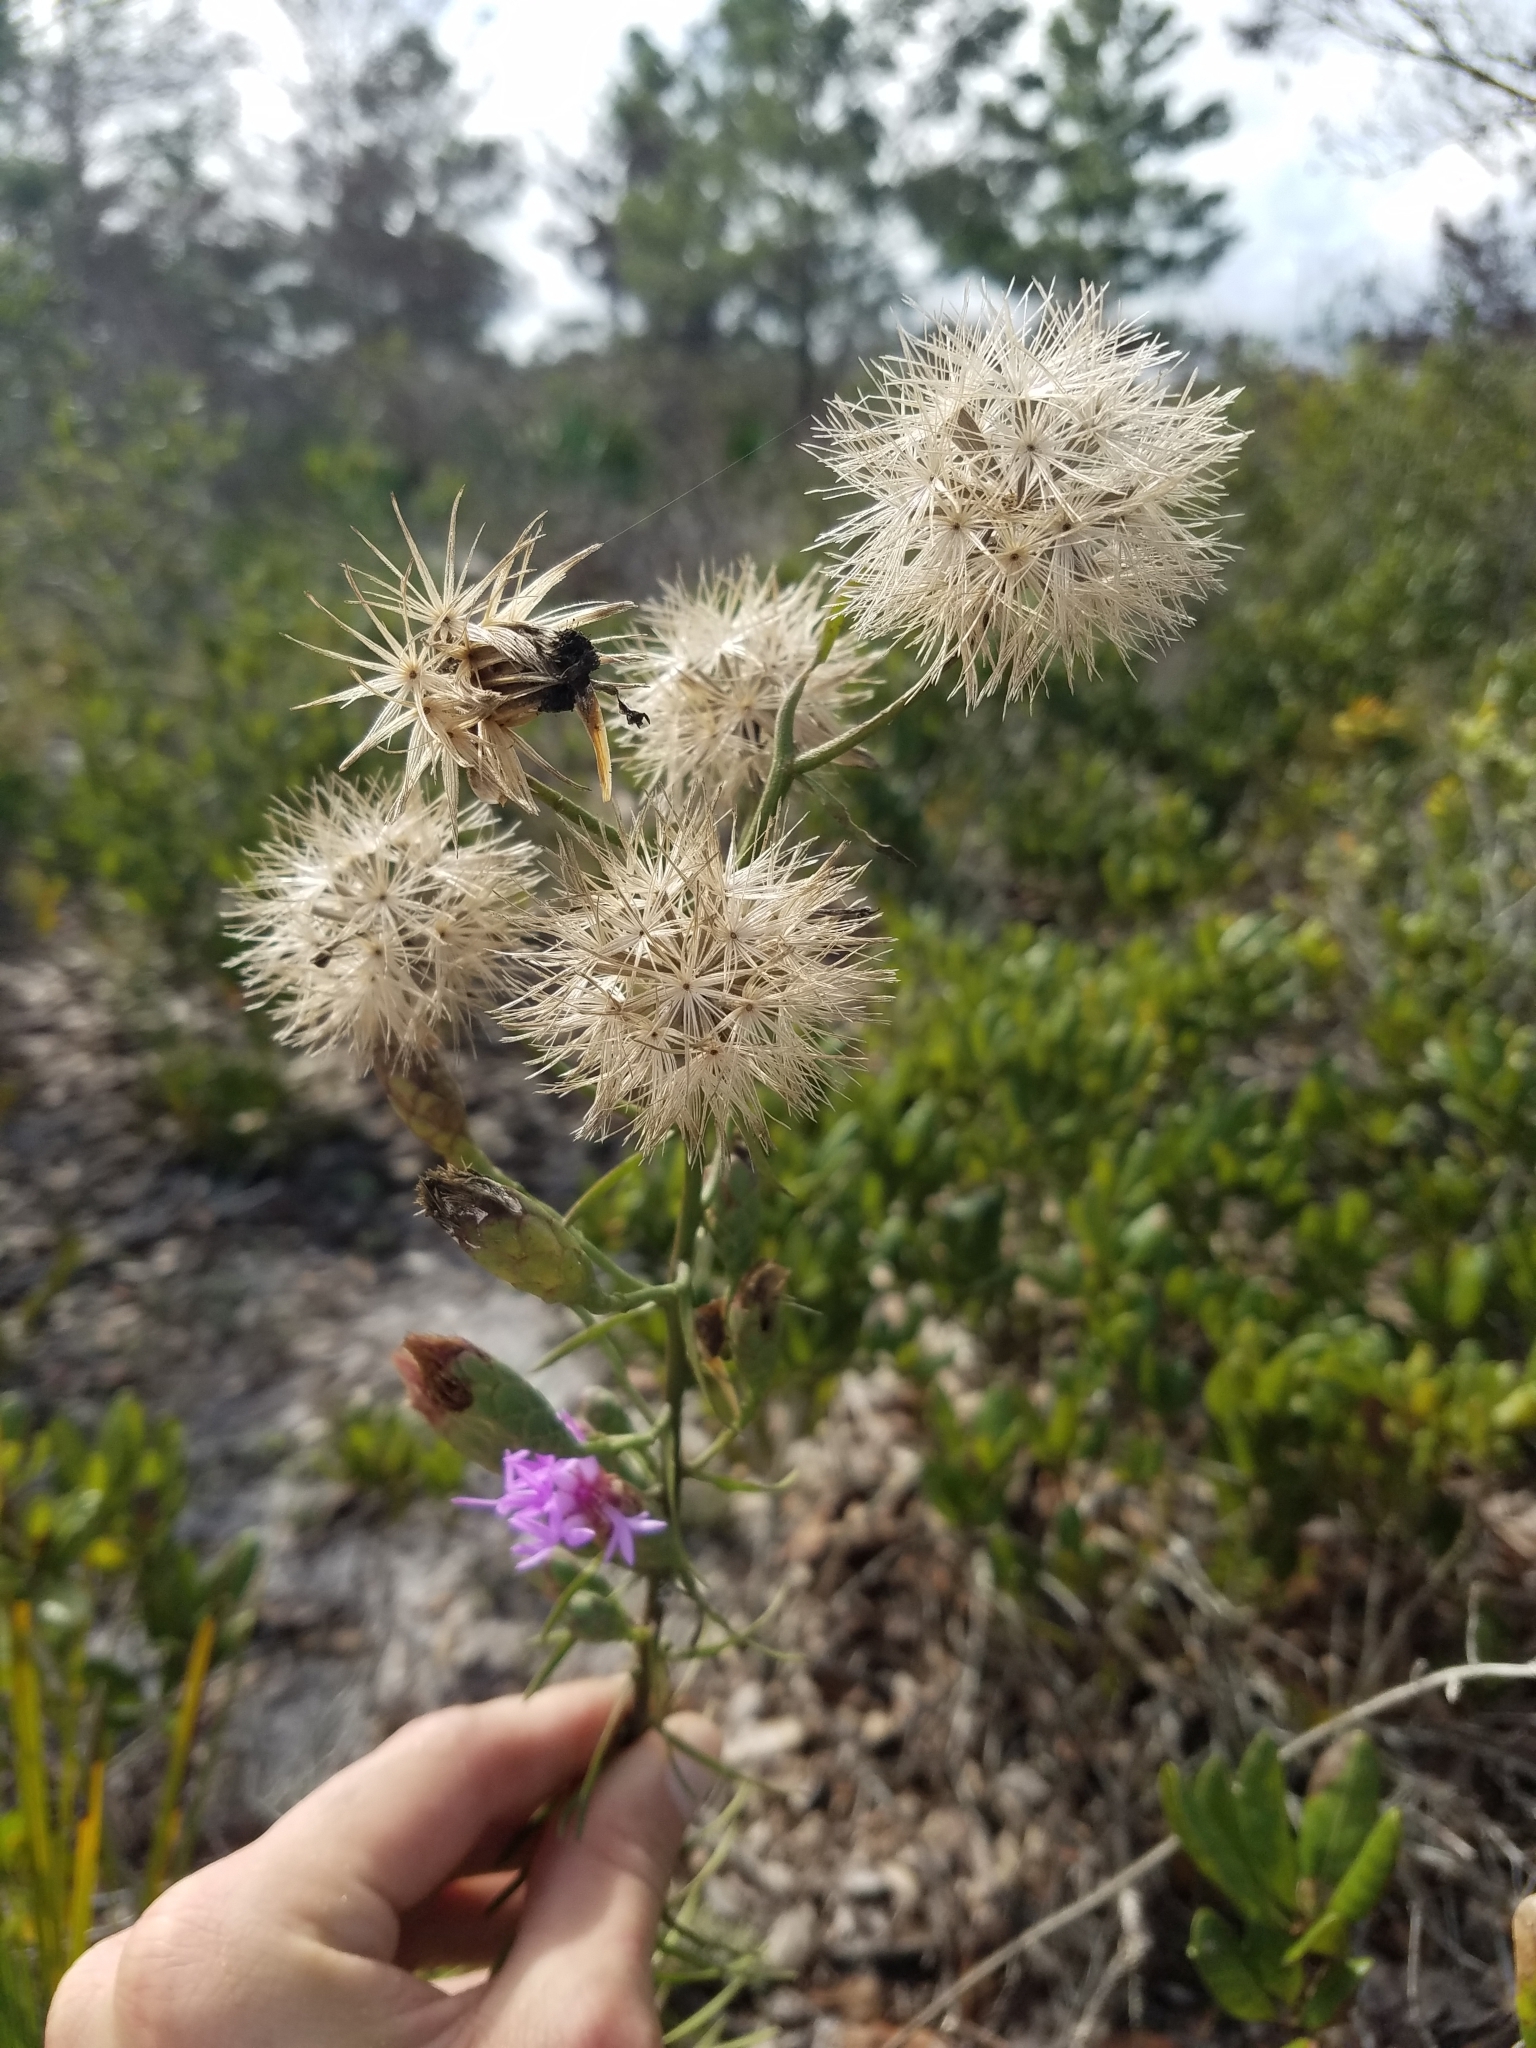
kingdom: Plantae
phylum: Tracheophyta
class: Magnoliopsida
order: Asterales
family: Asteraceae
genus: Liatris
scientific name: Liatris ohlingerae
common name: Scrub blazingstar
